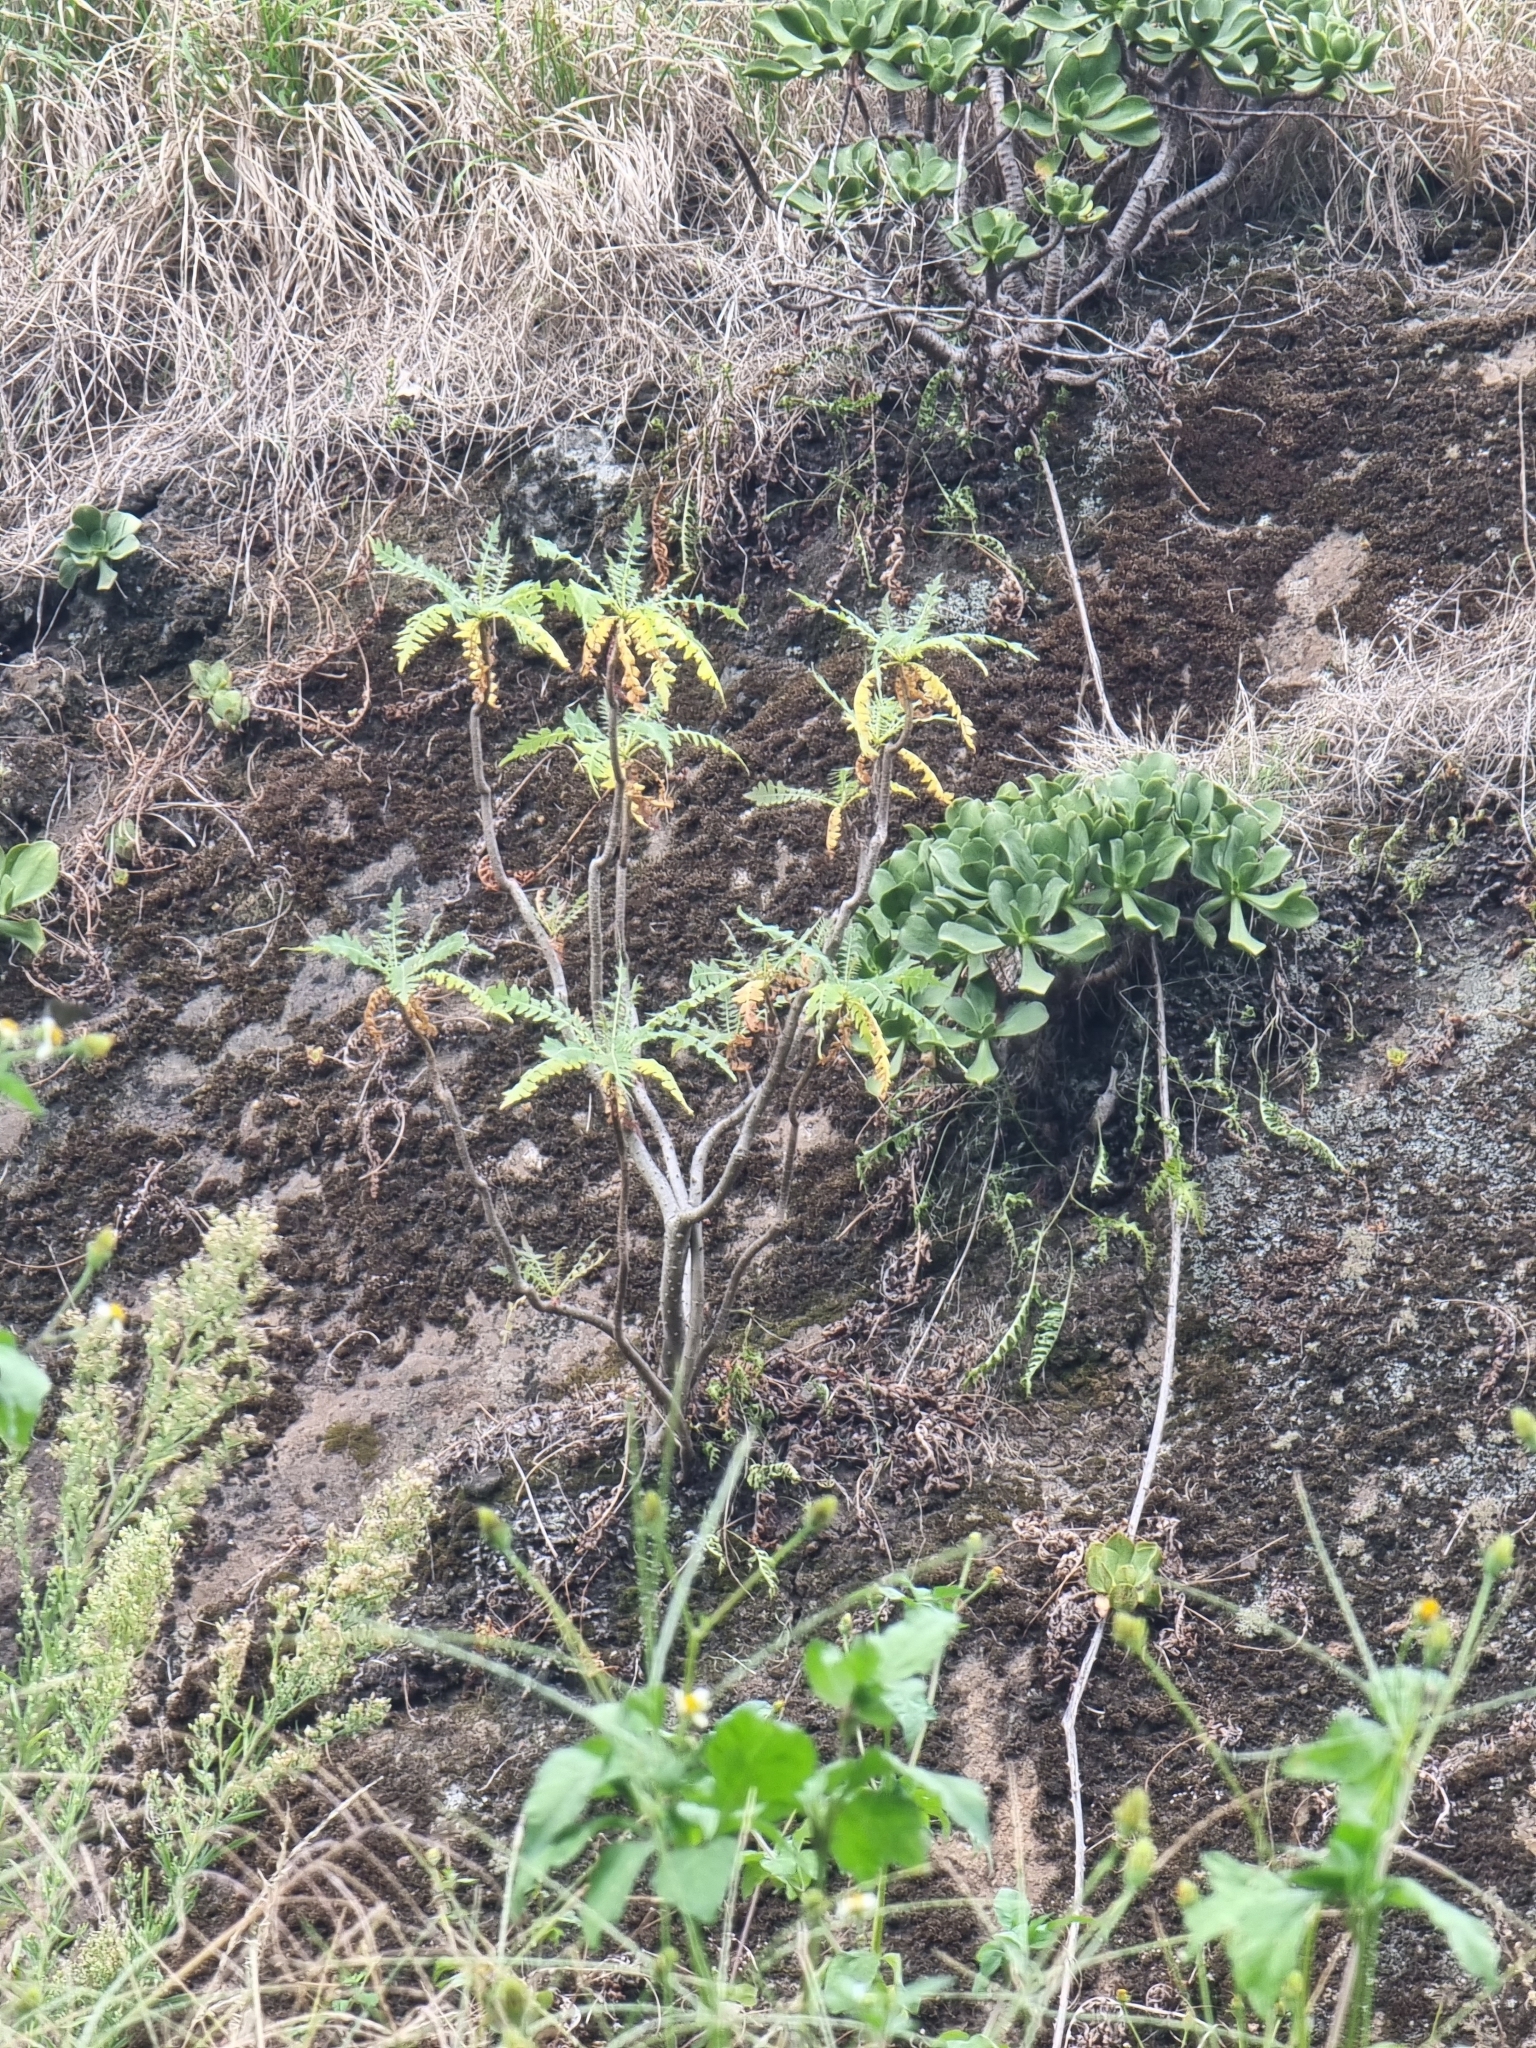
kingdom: Plantae
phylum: Tracheophyta
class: Magnoliopsida
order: Asterales
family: Asteraceae
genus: Sonchus
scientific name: Sonchus pinnatus
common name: Wing-leaved sow-thistle
